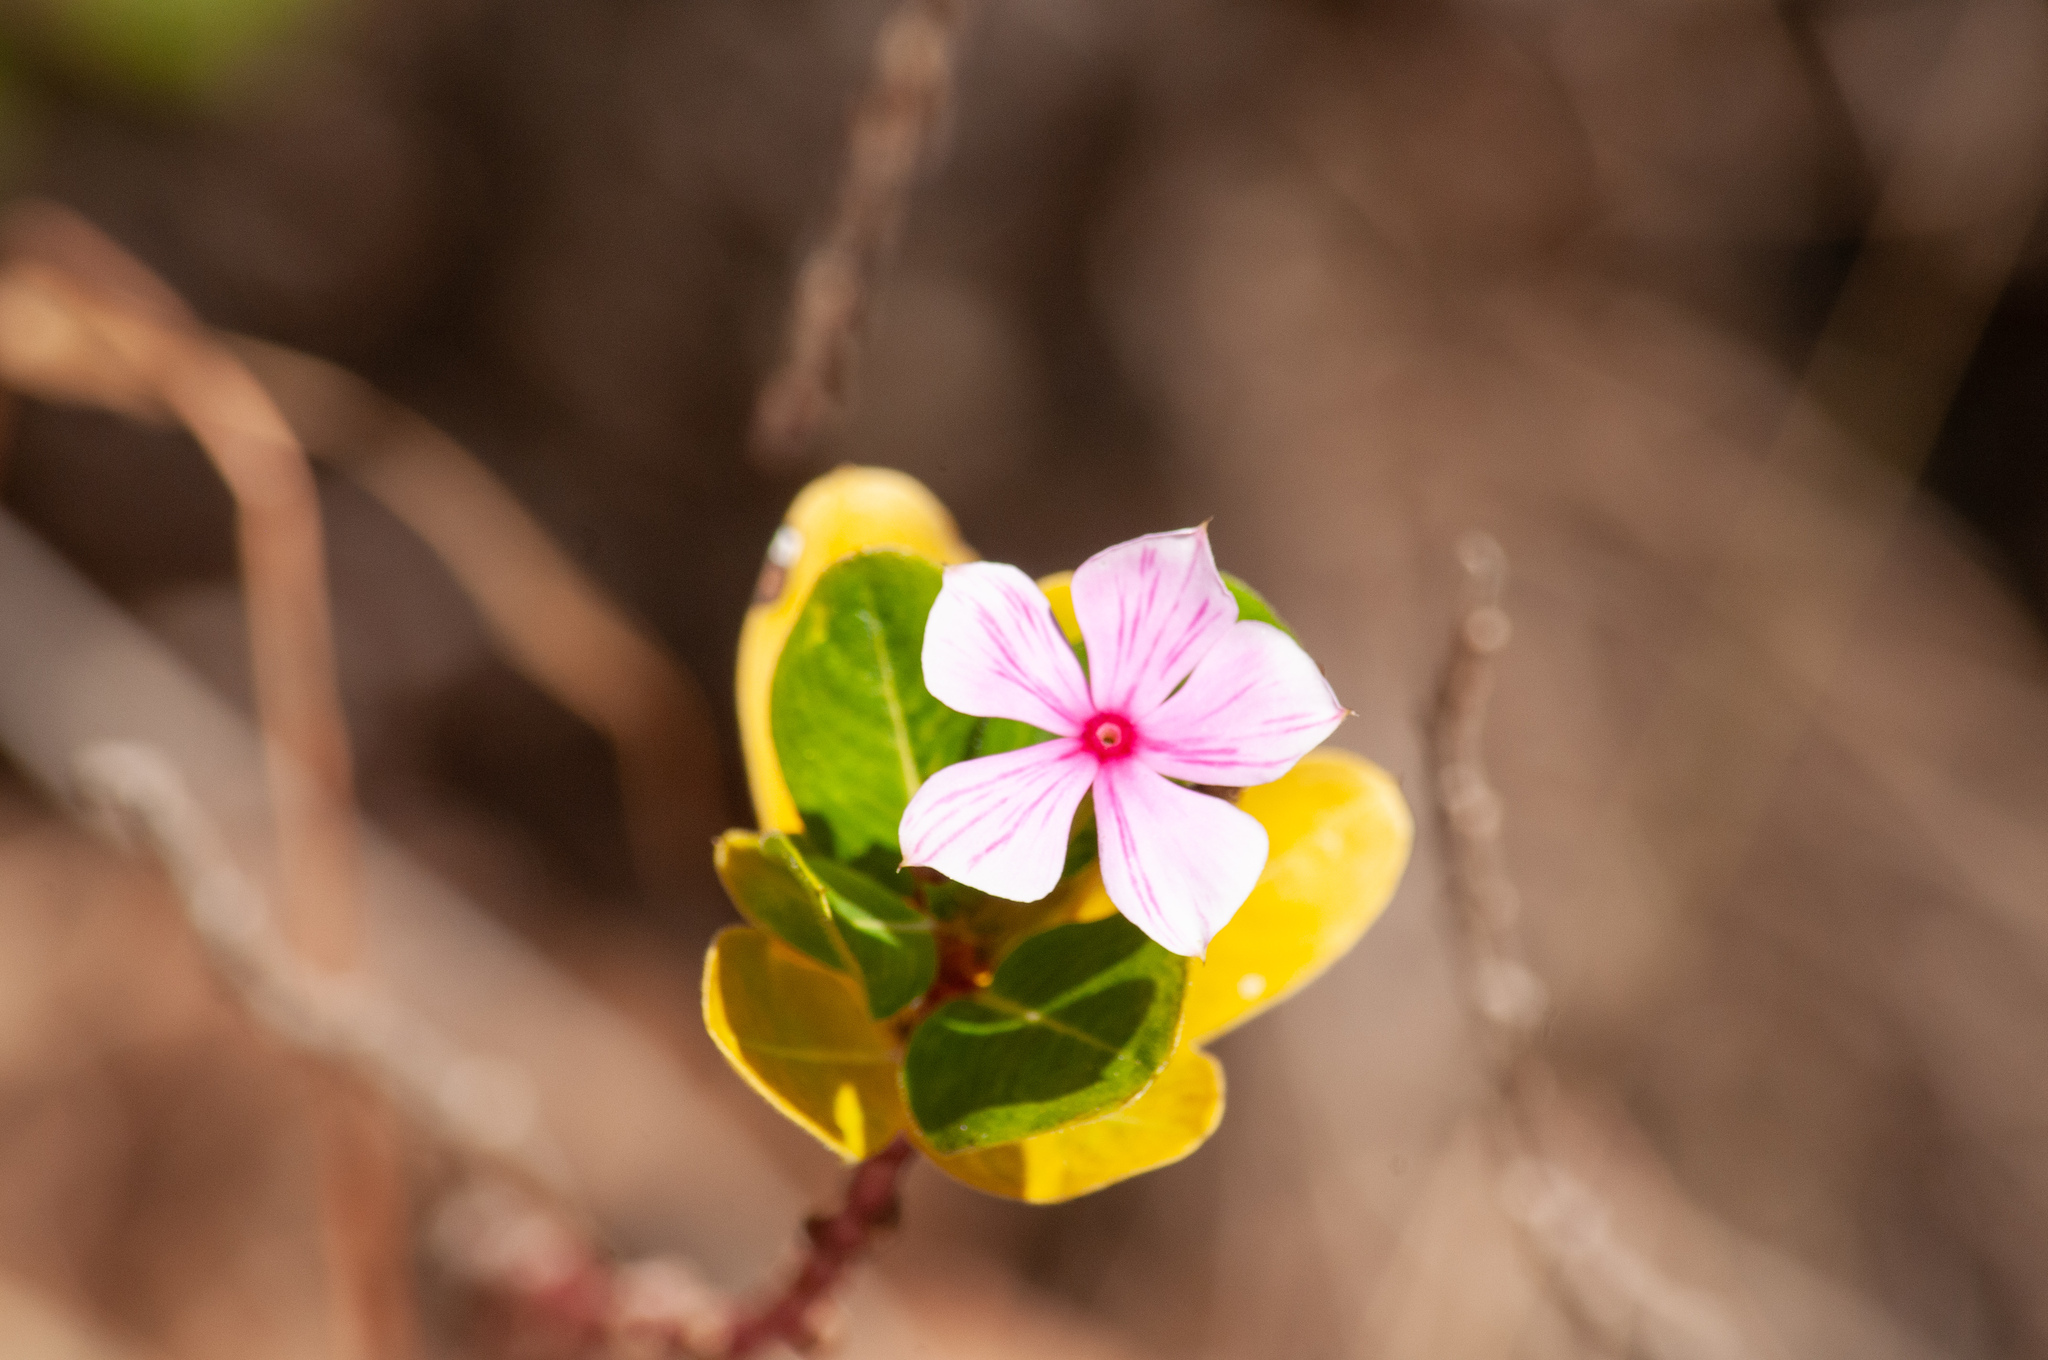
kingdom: Plantae
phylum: Tracheophyta
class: Magnoliopsida
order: Gentianales
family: Apocynaceae
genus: Catharanthus
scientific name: Catharanthus roseus
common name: Madagascar periwinkle
